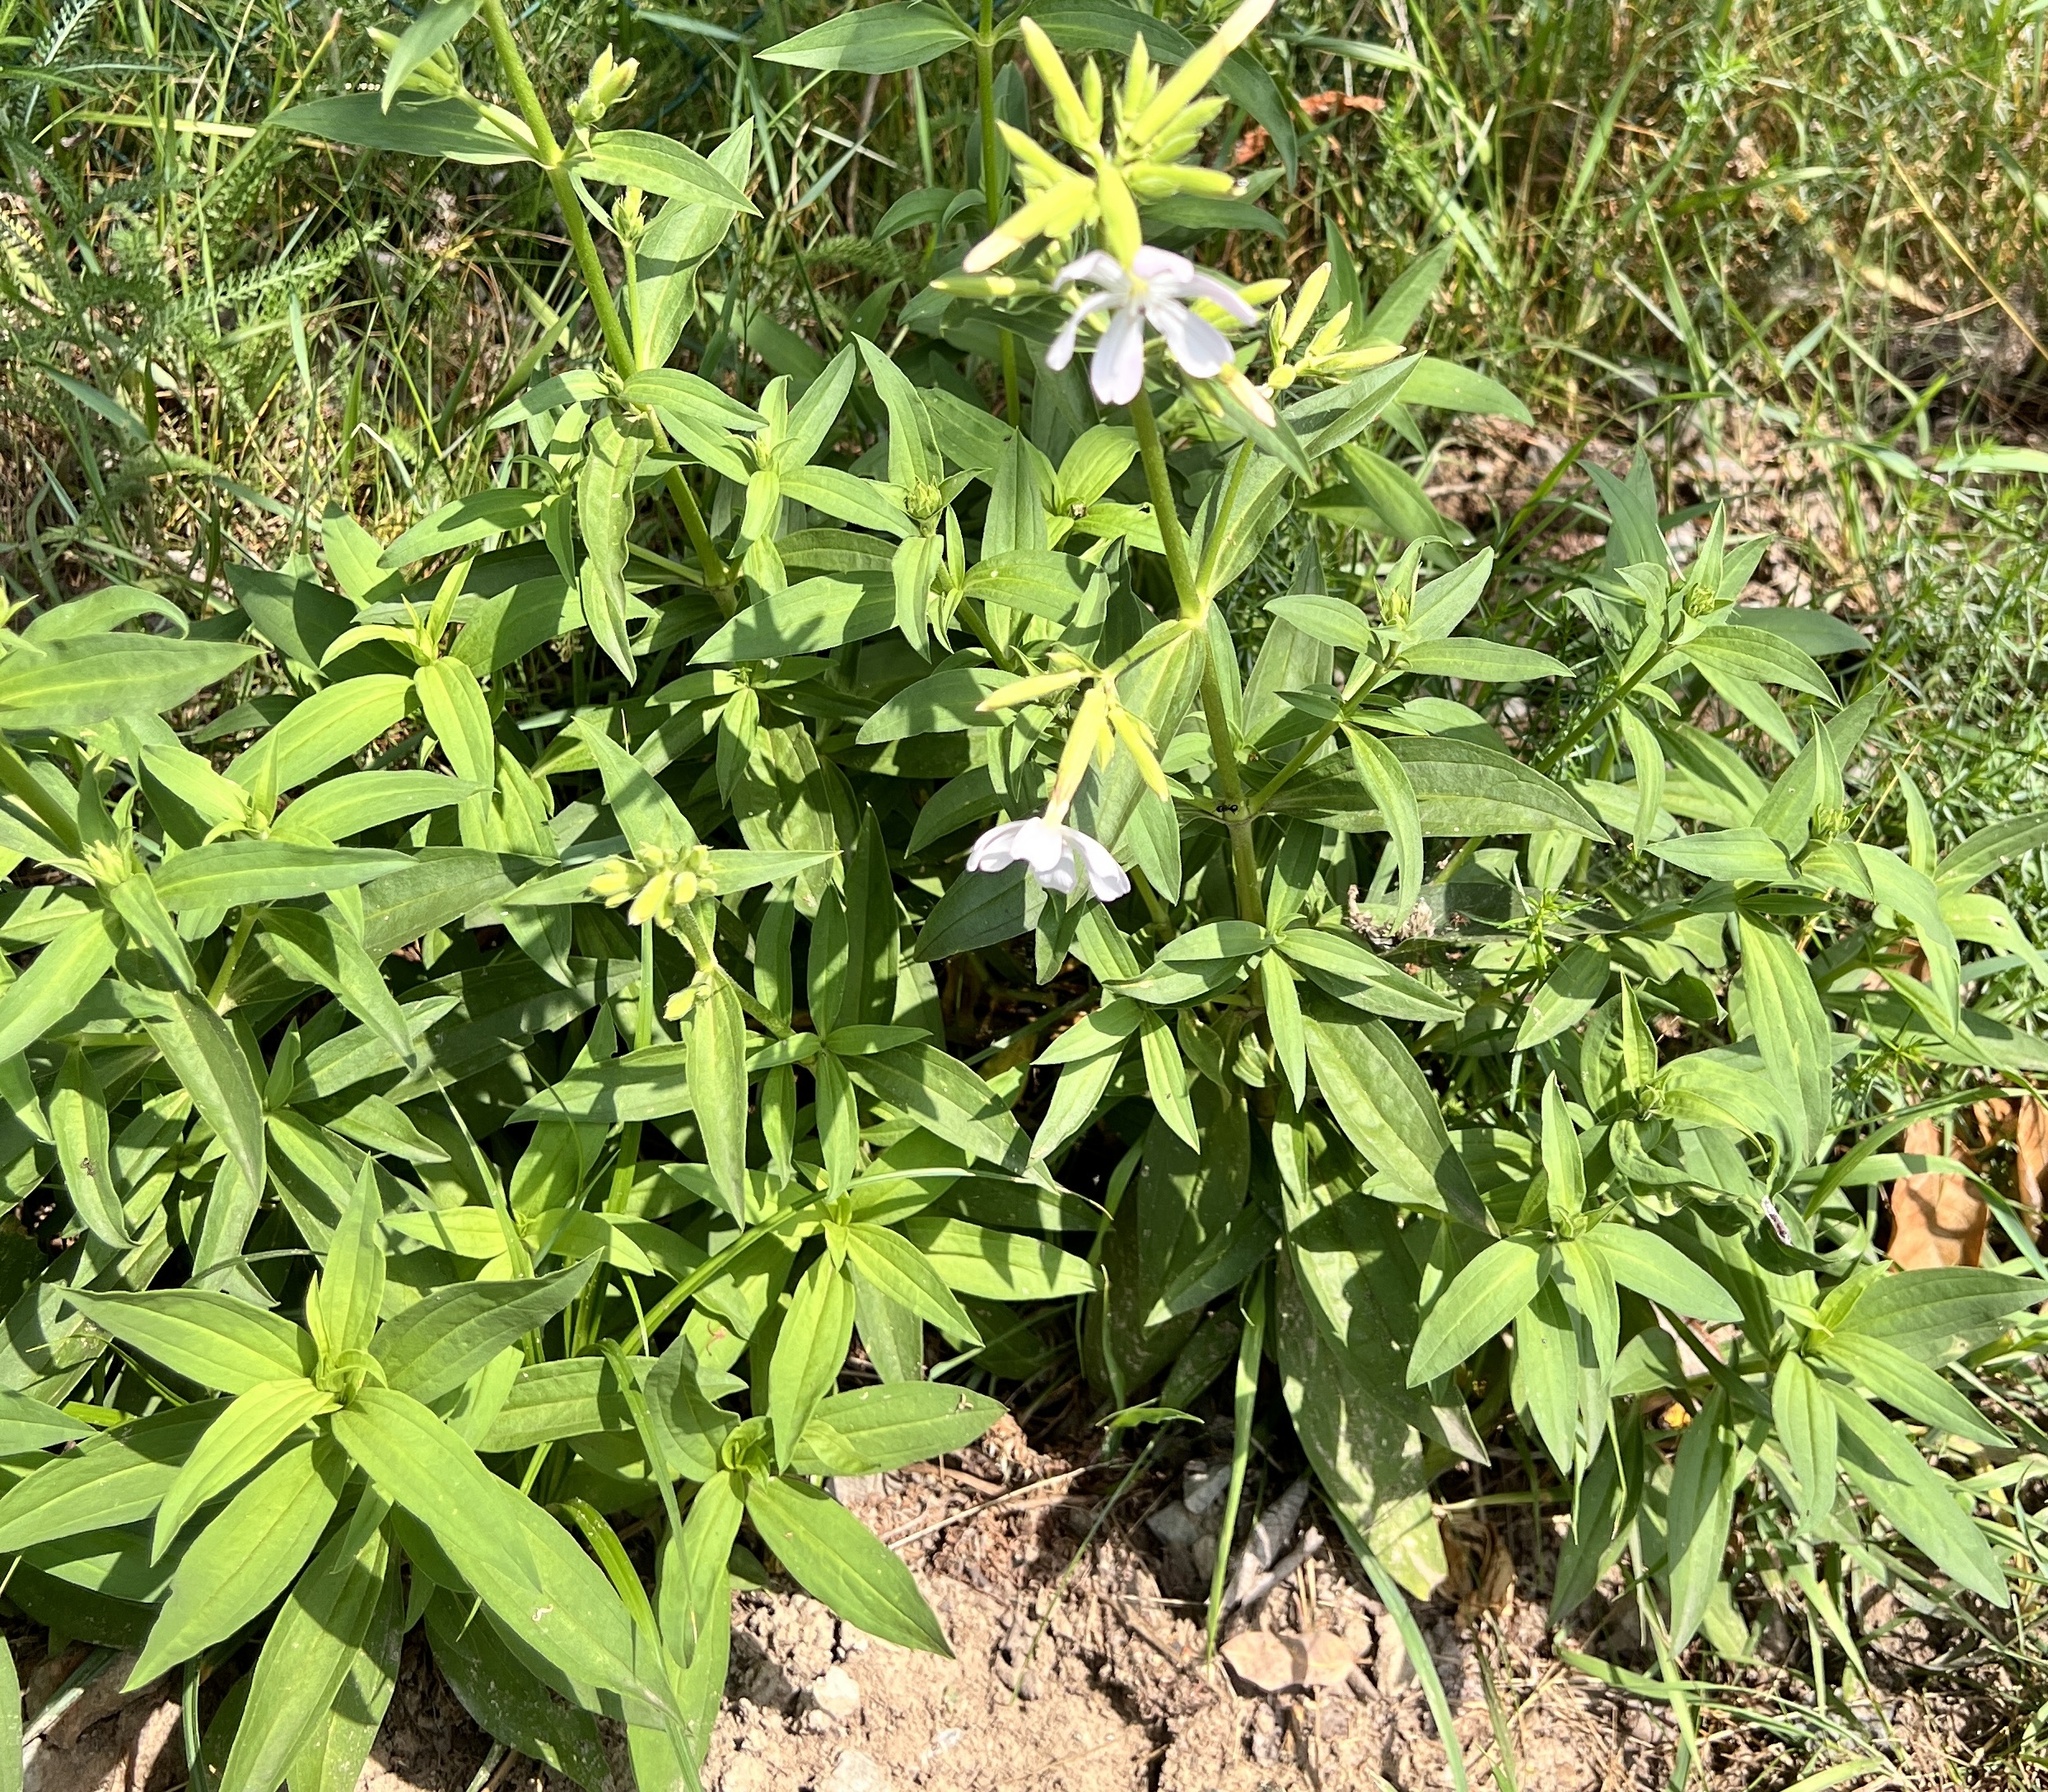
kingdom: Plantae
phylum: Tracheophyta
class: Magnoliopsida
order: Caryophyllales
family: Caryophyllaceae
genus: Saponaria
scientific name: Saponaria officinalis
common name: Soapwort
